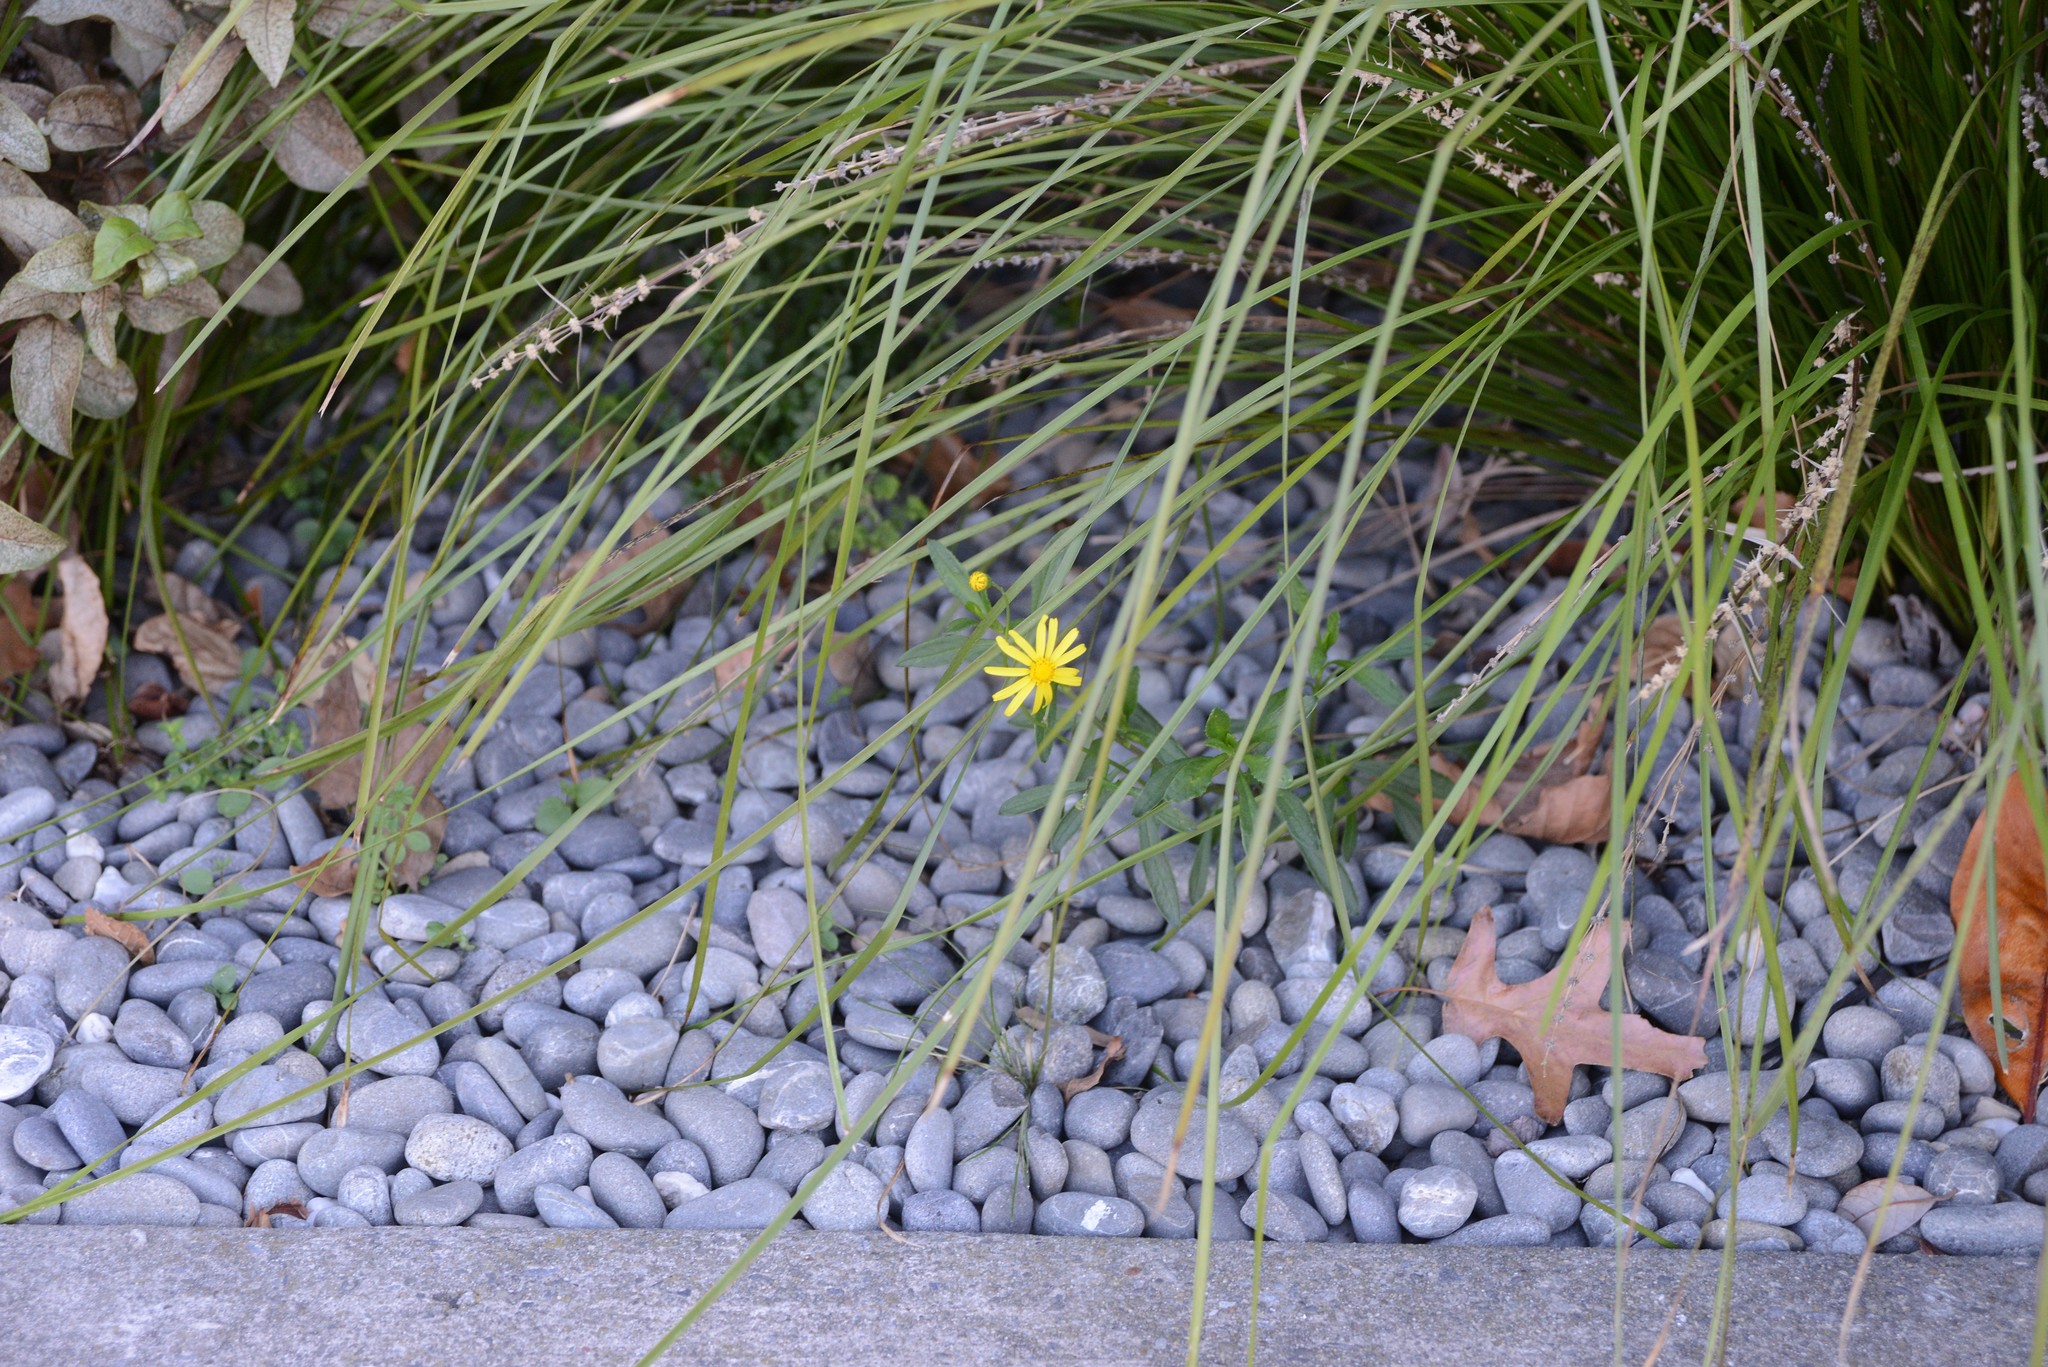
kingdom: Plantae
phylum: Tracheophyta
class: Magnoliopsida
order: Asterales
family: Asteraceae
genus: Senecio
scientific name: Senecio skirrhodon
